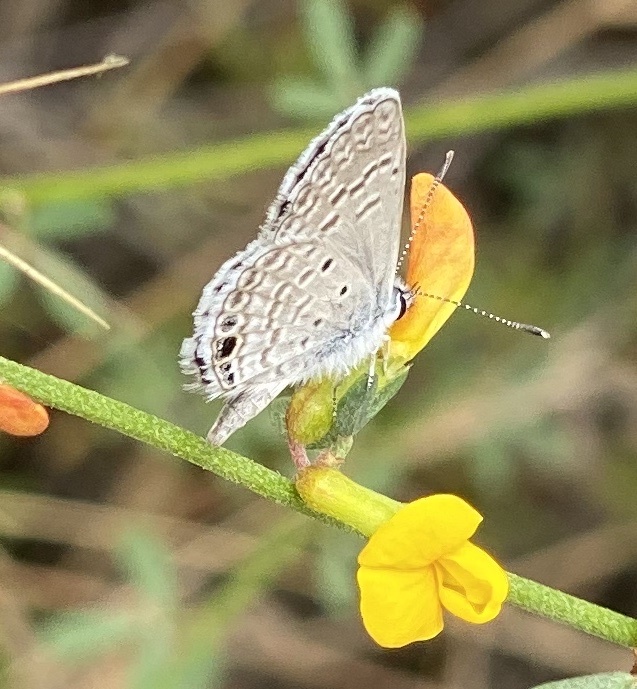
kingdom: Animalia
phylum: Arthropoda
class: Insecta
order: Lepidoptera
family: Lycaenidae
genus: Hemiargus
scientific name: Hemiargus ceraunus
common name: Ceraunus blue
